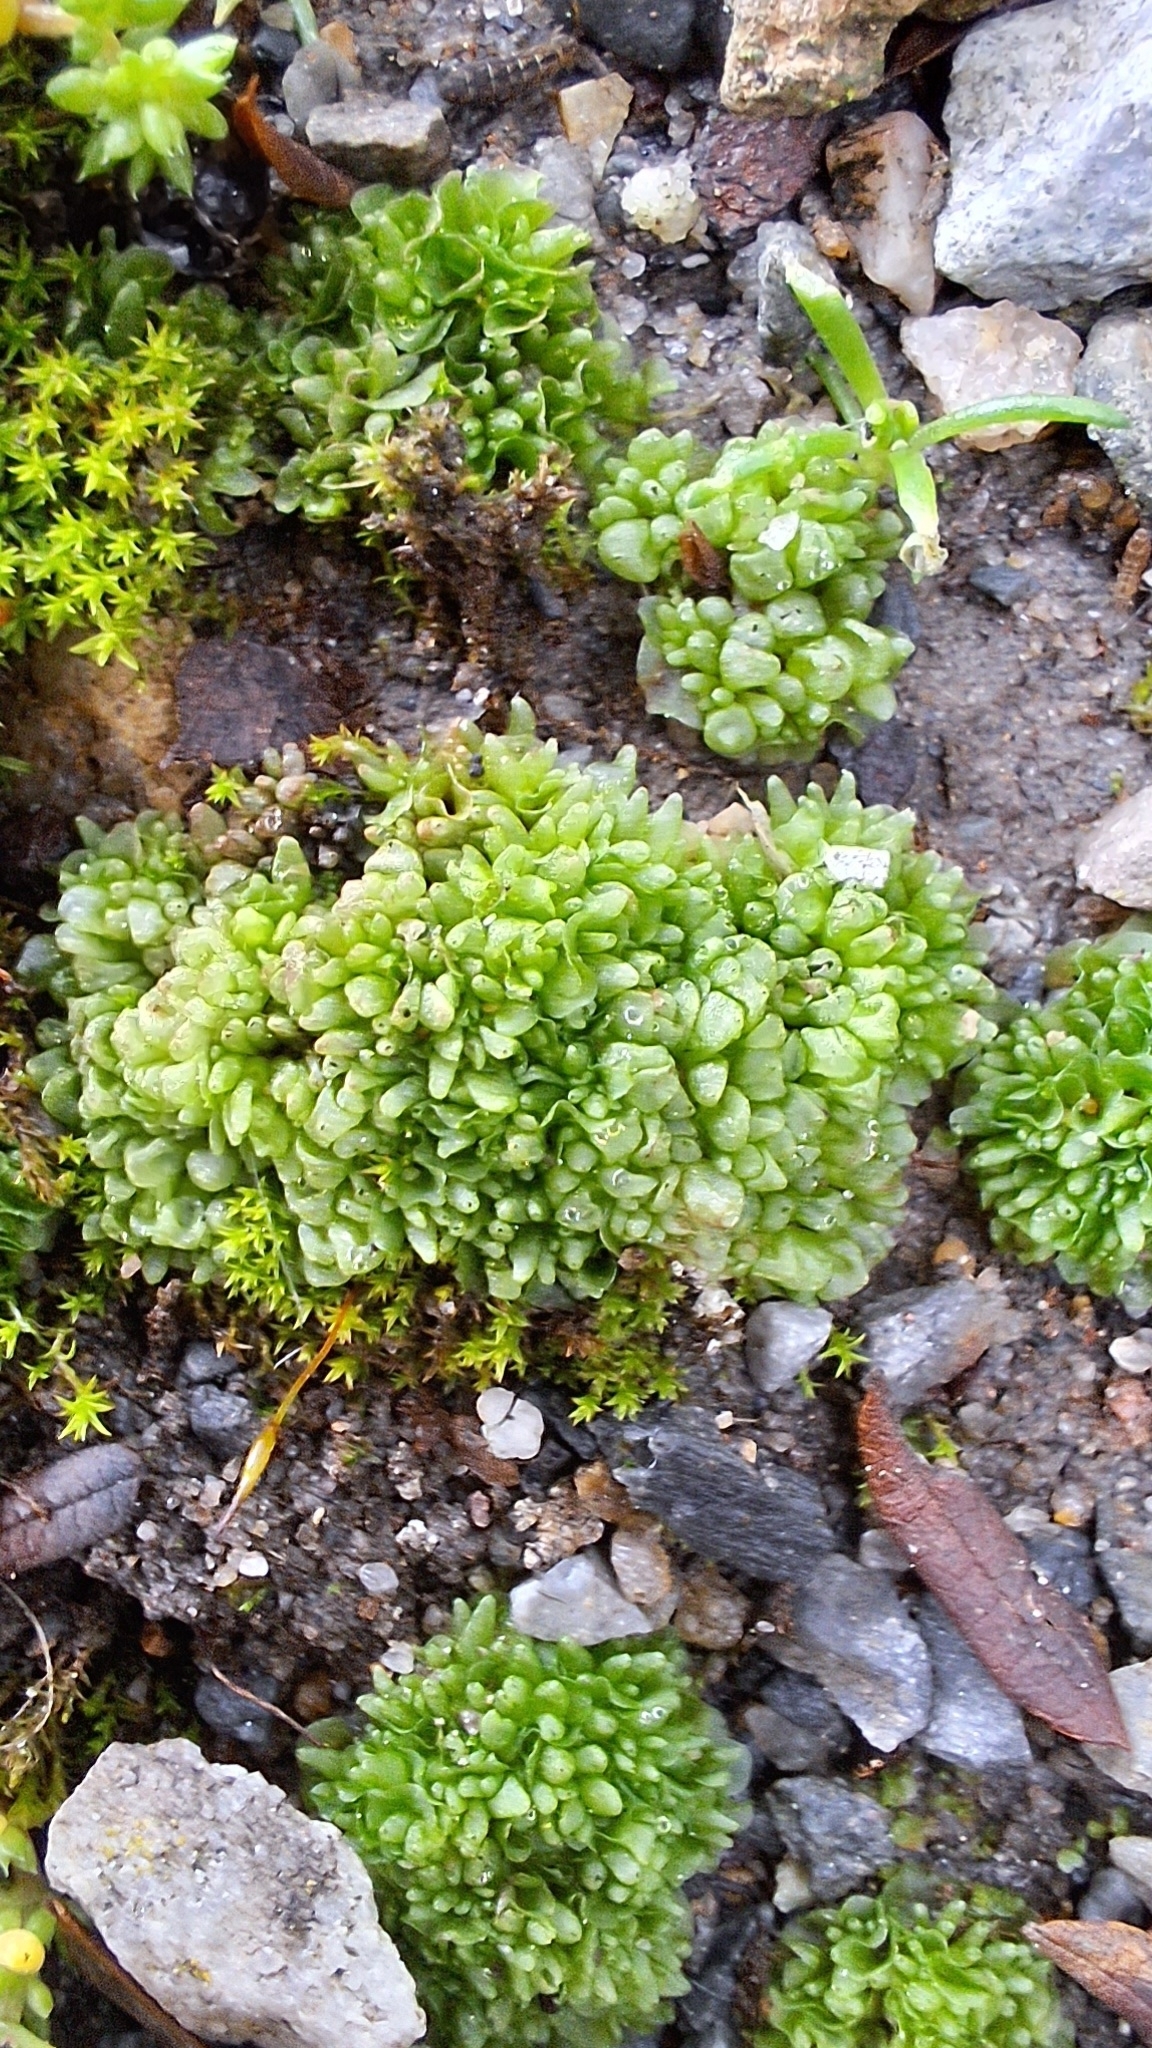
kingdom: Plantae
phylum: Marchantiophyta
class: Marchantiopsida
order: Sphaerocarpales
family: Sphaerocarpaceae
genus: Sphaerocarpos
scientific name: Sphaerocarpos texanus
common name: Texas balloonwort
